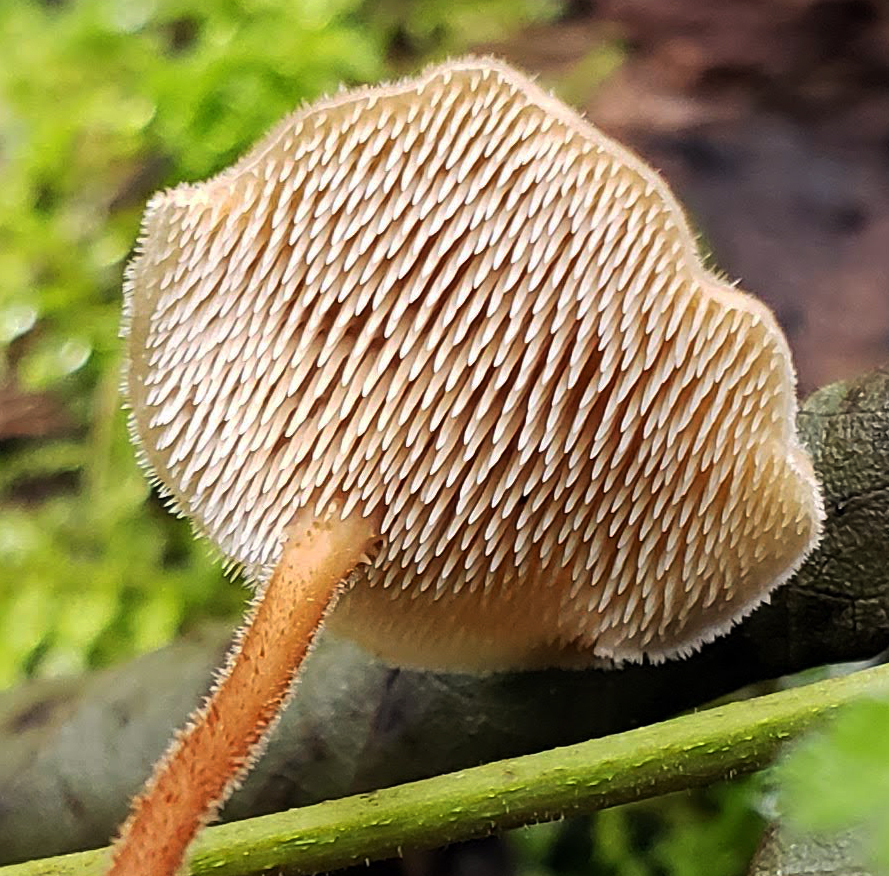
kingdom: Fungi
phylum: Basidiomycota
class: Agaricomycetes
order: Russulales
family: Auriscalpiaceae
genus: Auriscalpium
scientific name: Auriscalpium vulgare
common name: Earpick fungus
